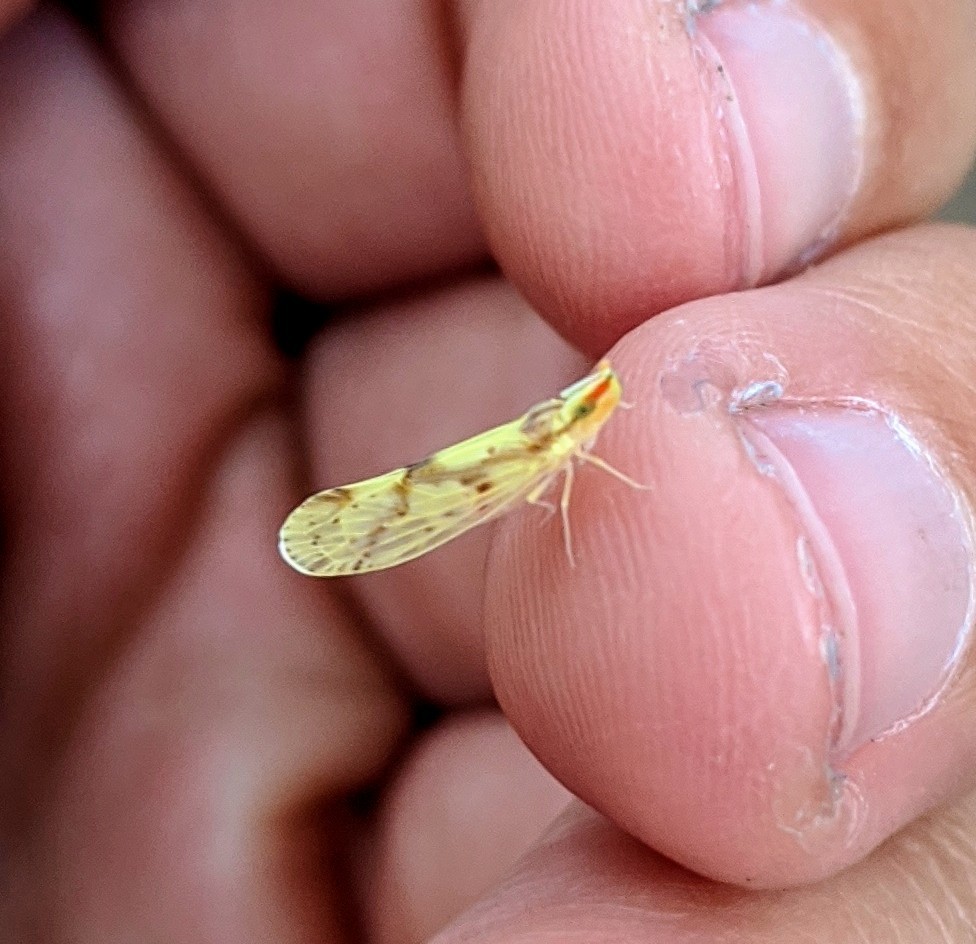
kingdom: Animalia
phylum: Arthropoda
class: Insecta
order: Hemiptera
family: Derbidae
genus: Otiocerus
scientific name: Otiocerus wolfii
